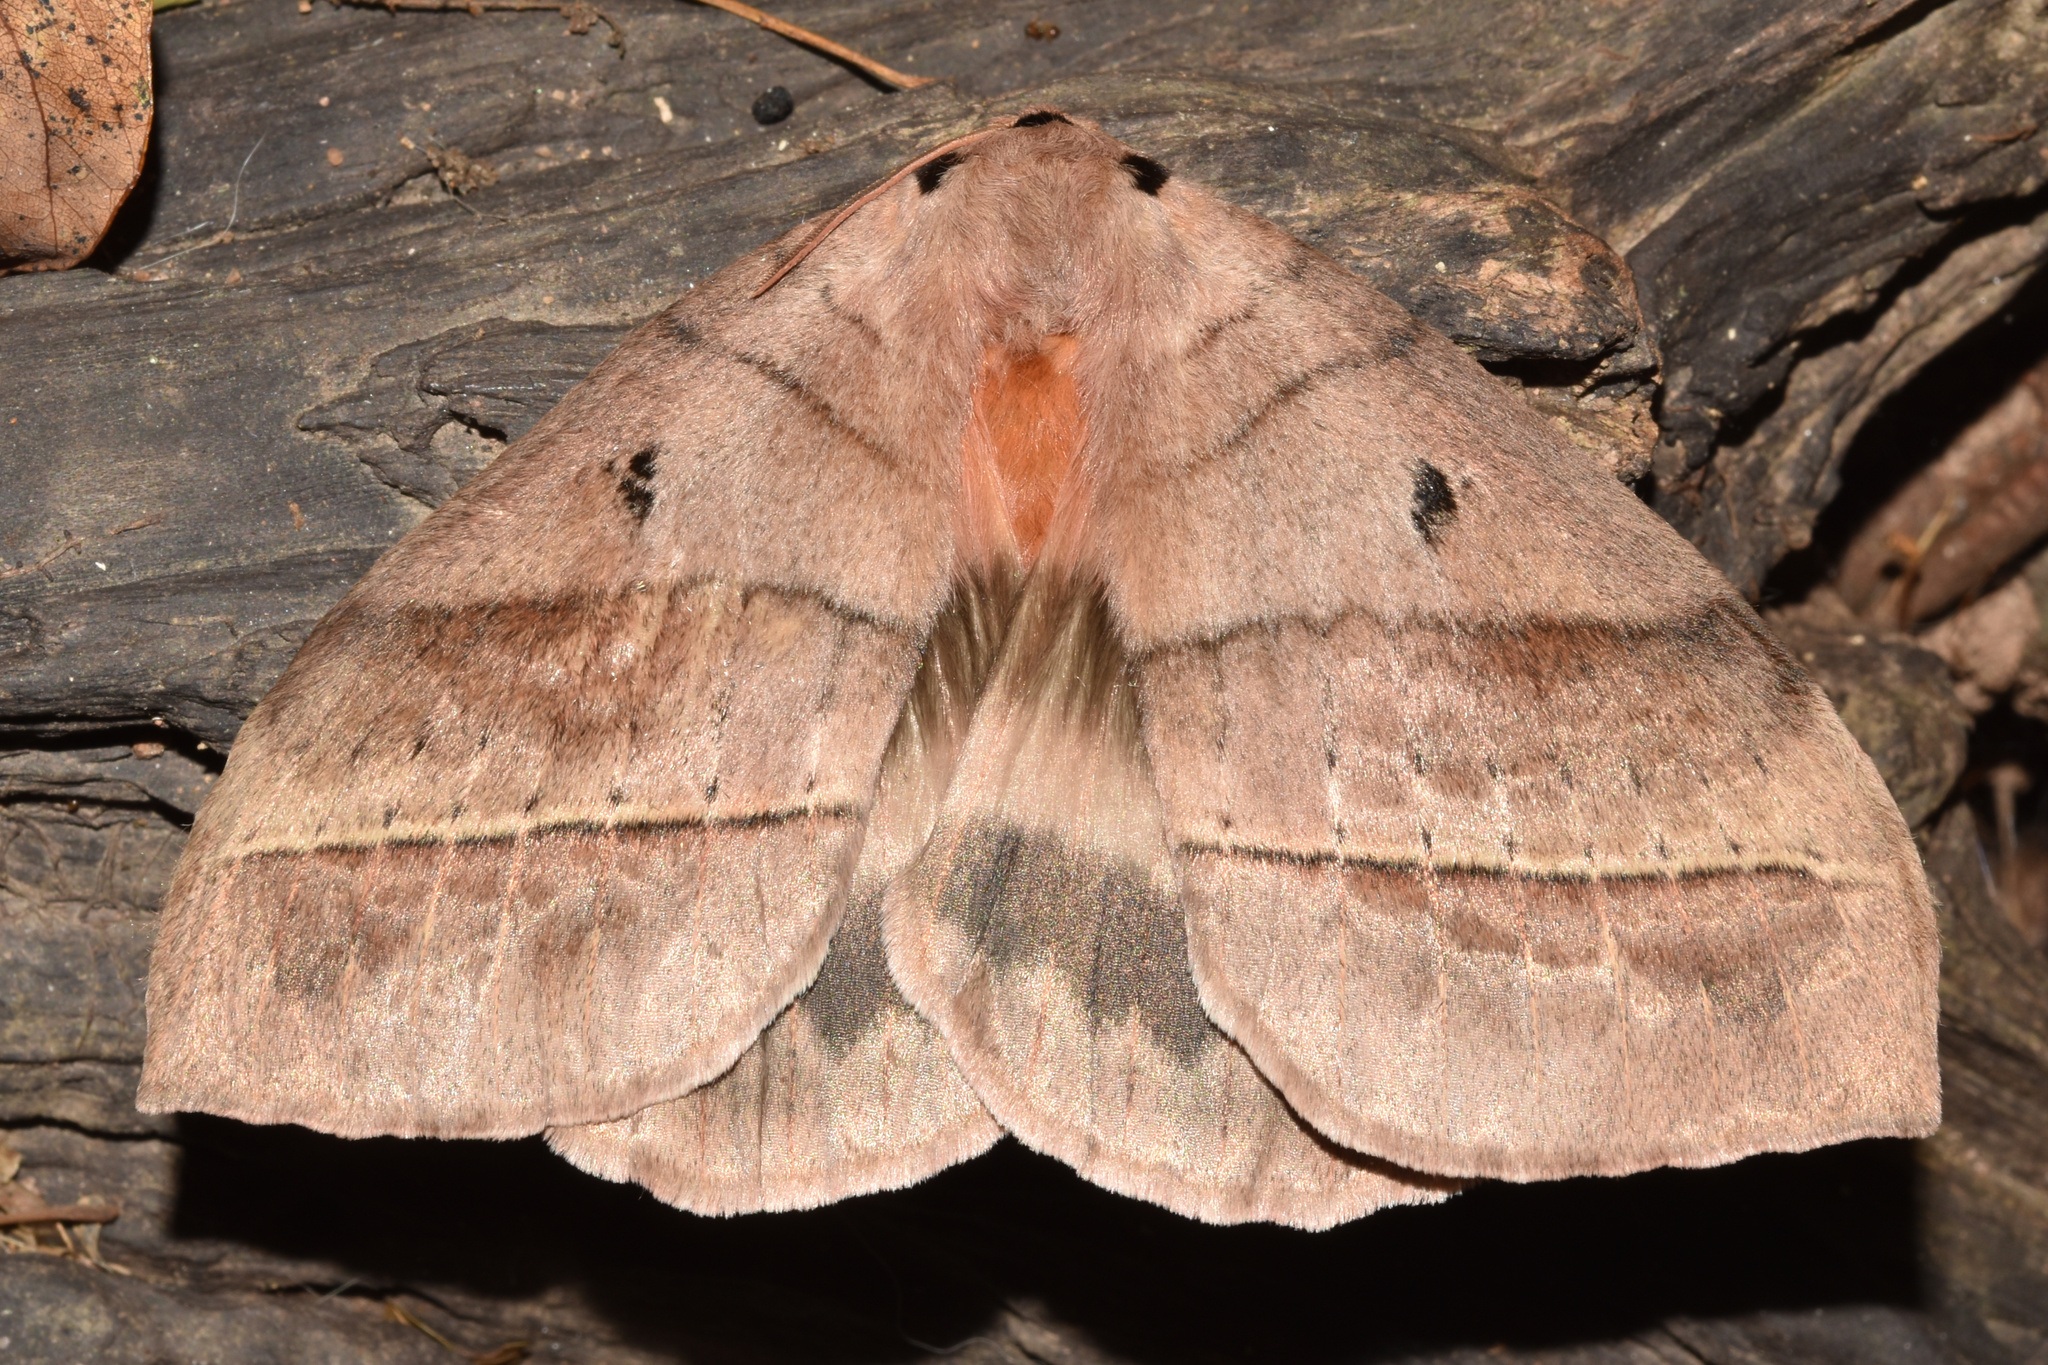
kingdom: Animalia
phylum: Arthropoda
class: Insecta
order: Lepidoptera
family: Eupterotidae
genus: Jana
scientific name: Jana eurymas
